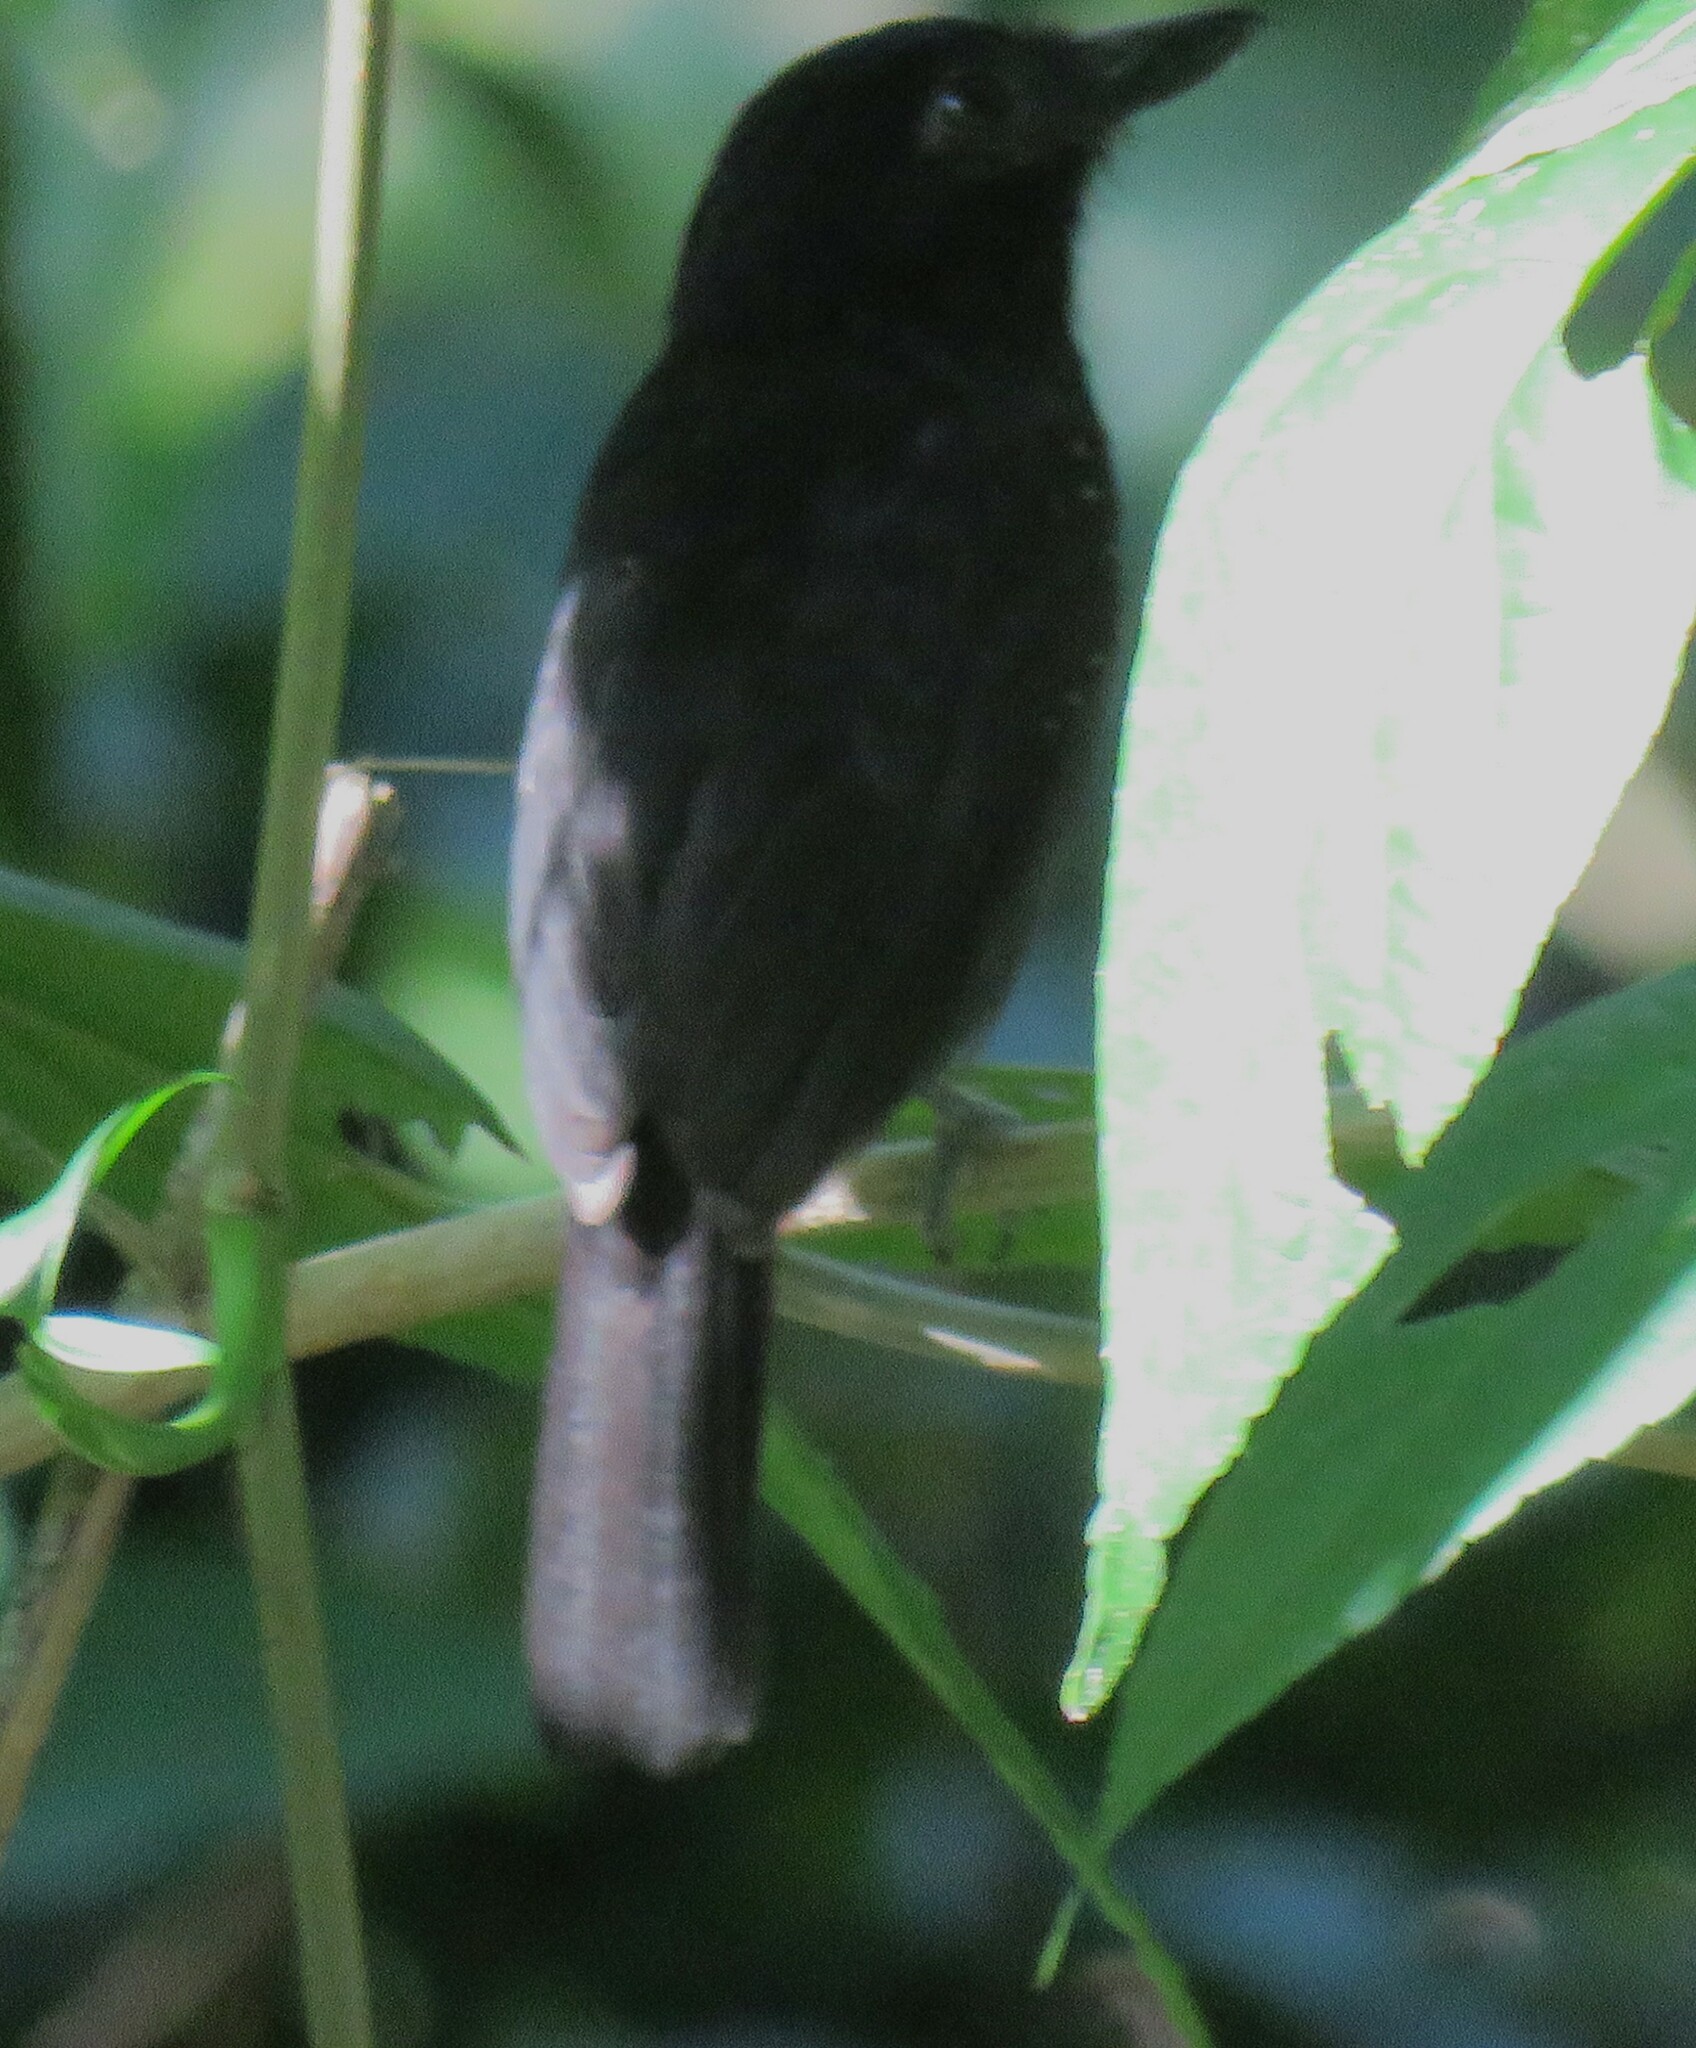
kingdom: Animalia
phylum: Chordata
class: Aves
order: Passeriformes
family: Thamnophilidae
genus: Thamnophilus
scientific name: Thamnophilus bridgesi
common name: Black-hooded antshrike
